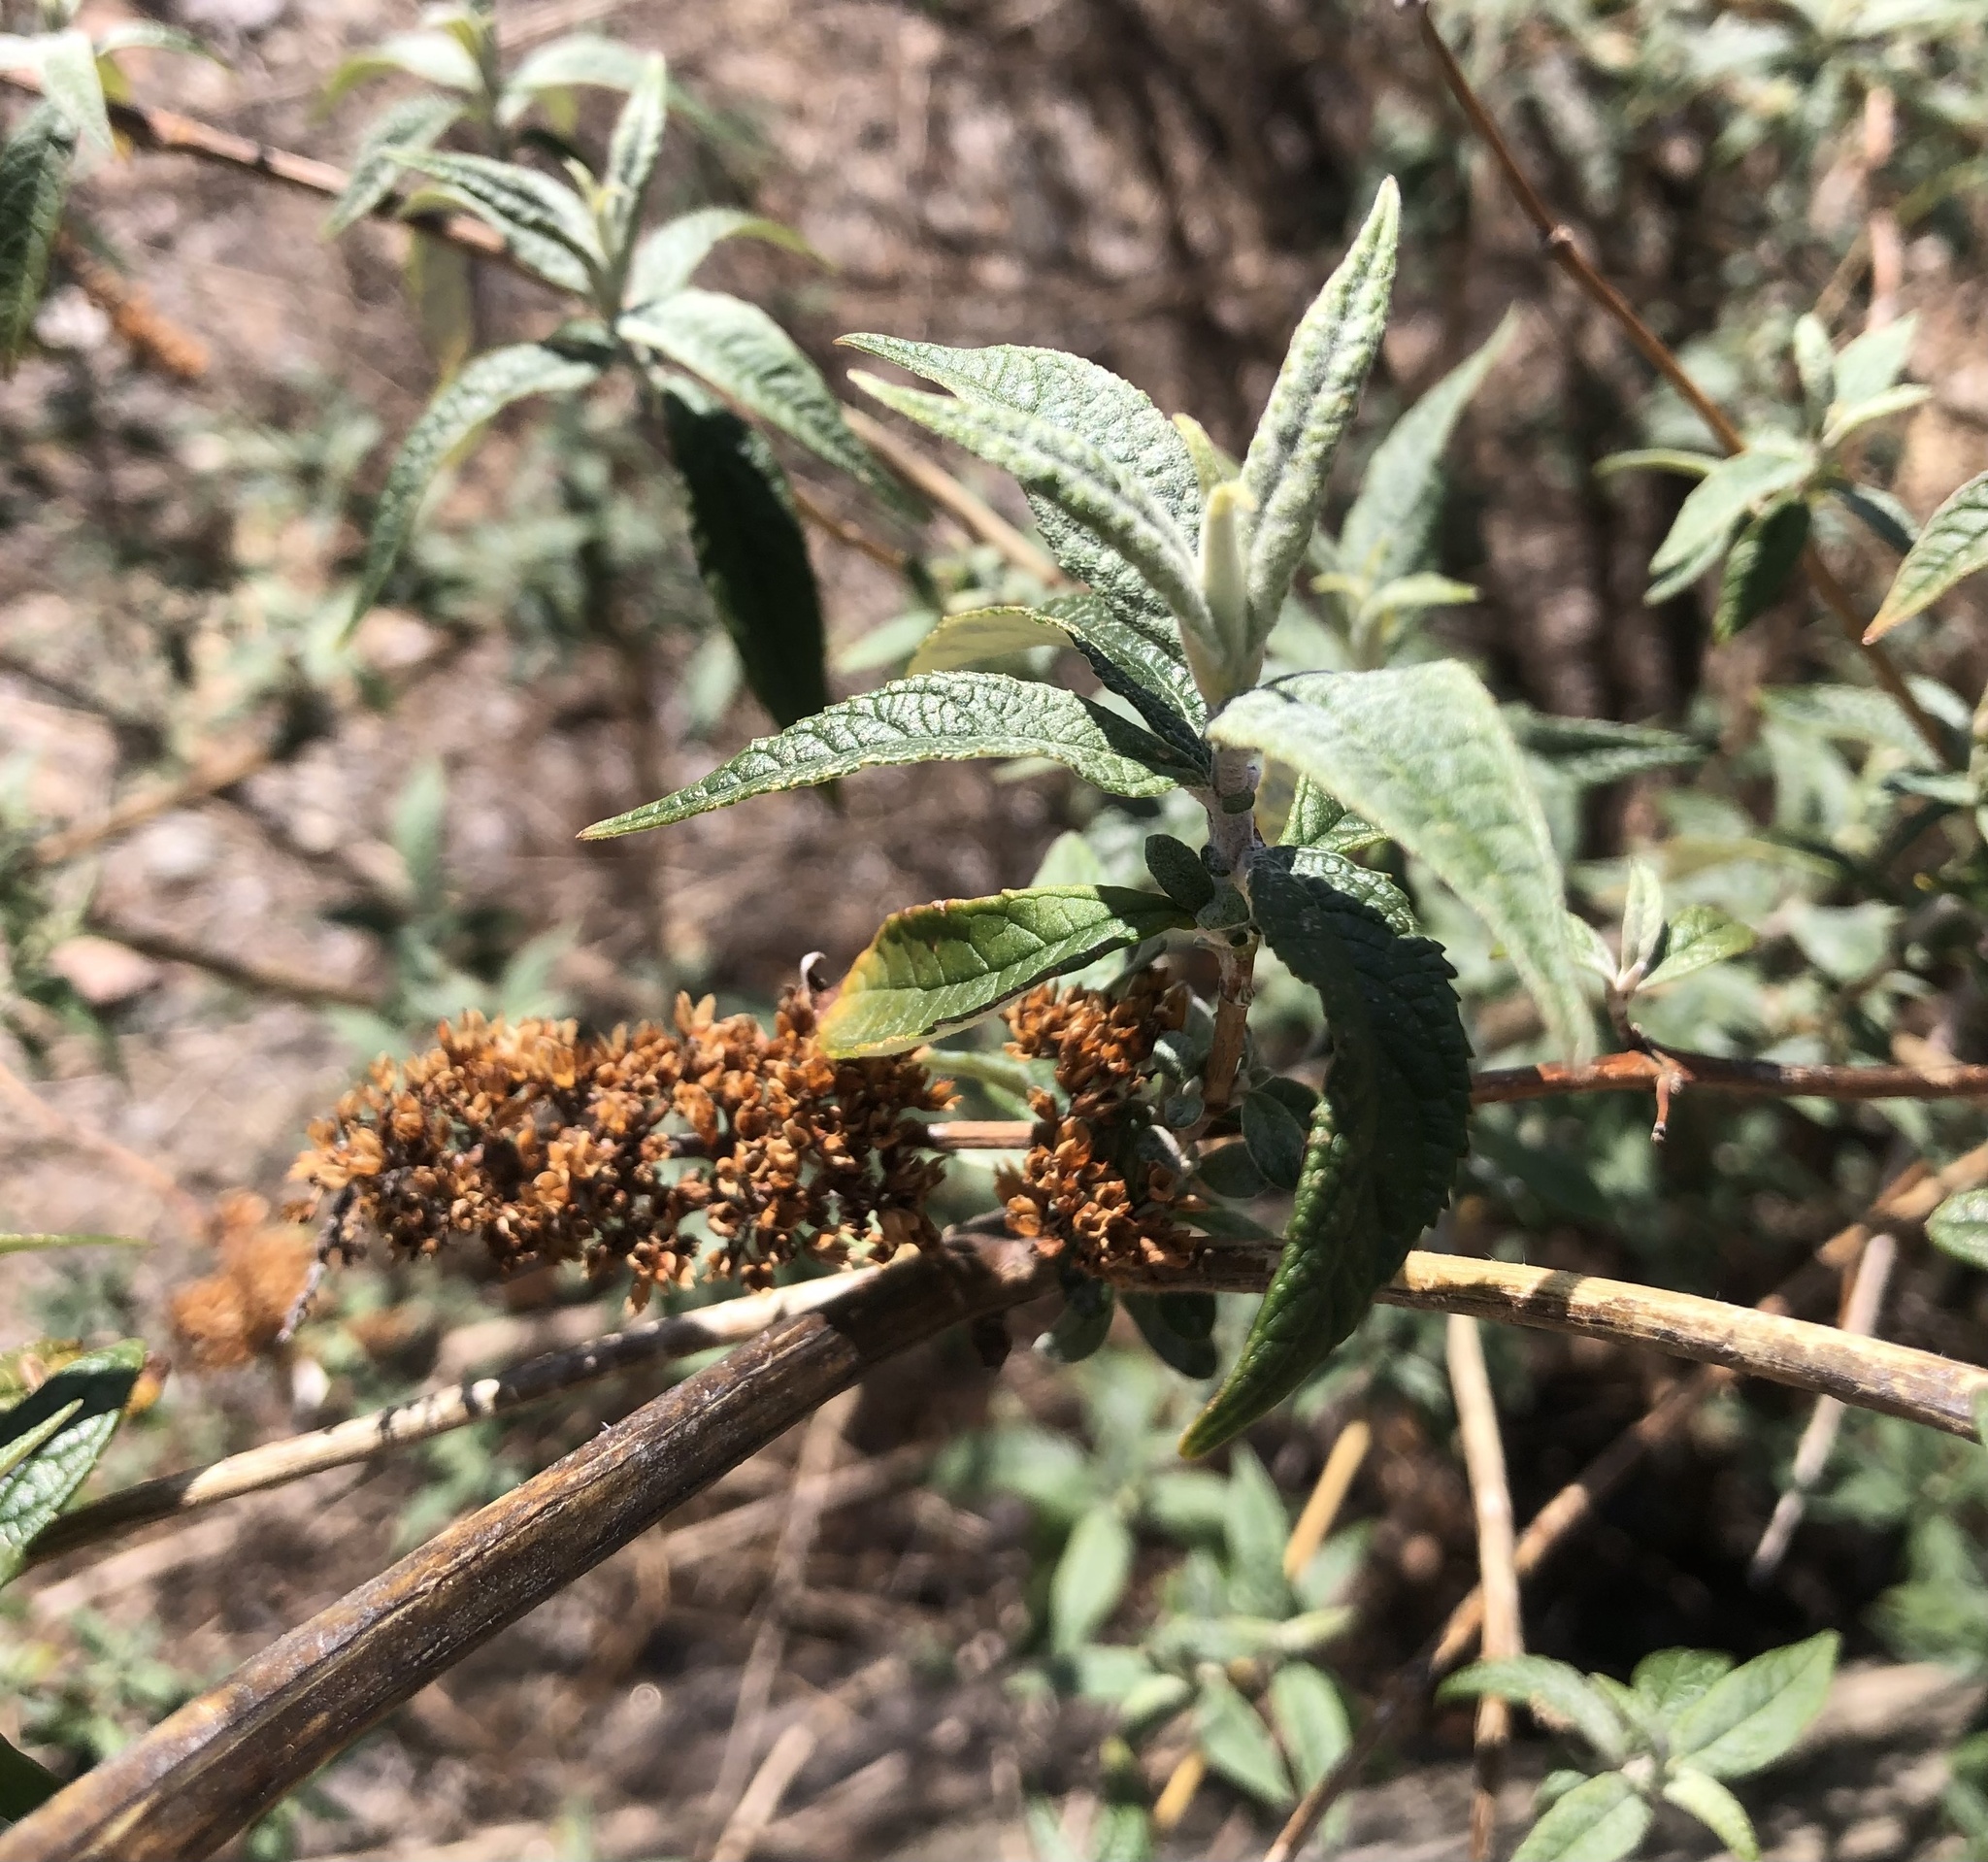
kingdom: Plantae
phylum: Tracheophyta
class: Magnoliopsida
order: Lamiales
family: Scrophulariaceae
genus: Buddleja
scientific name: Buddleja davidii
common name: Butterfly-bush
